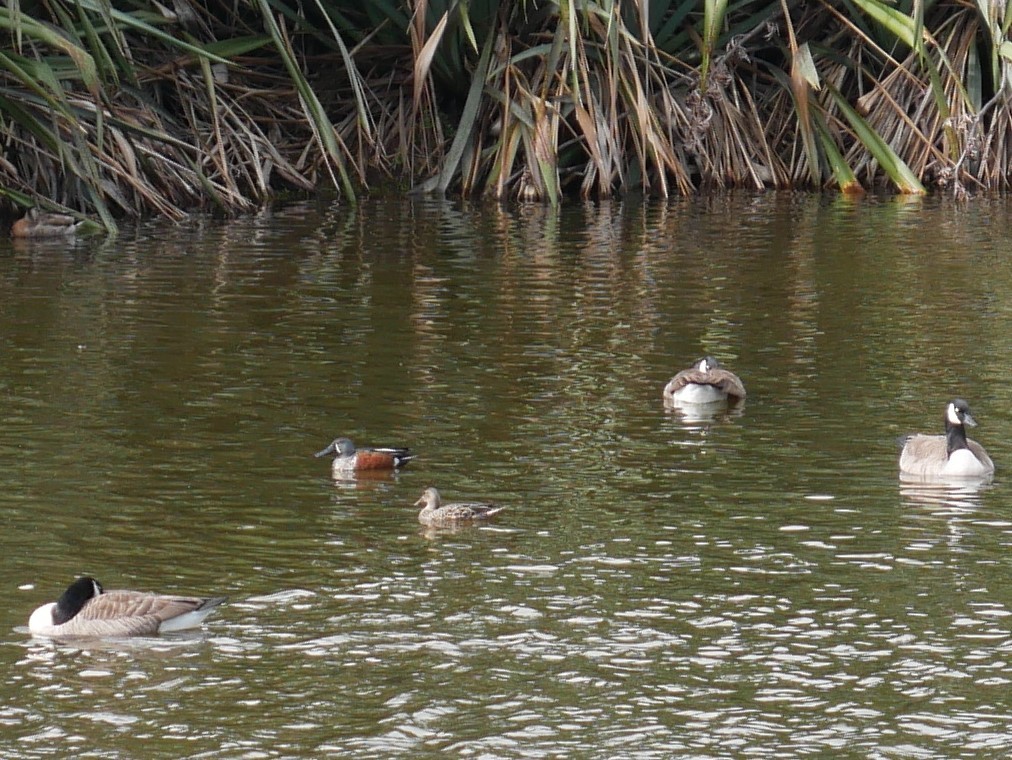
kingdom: Animalia
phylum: Chordata
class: Aves
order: Anseriformes
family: Anatidae
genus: Spatula
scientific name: Spatula rhynchotis
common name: Australian shoveler
